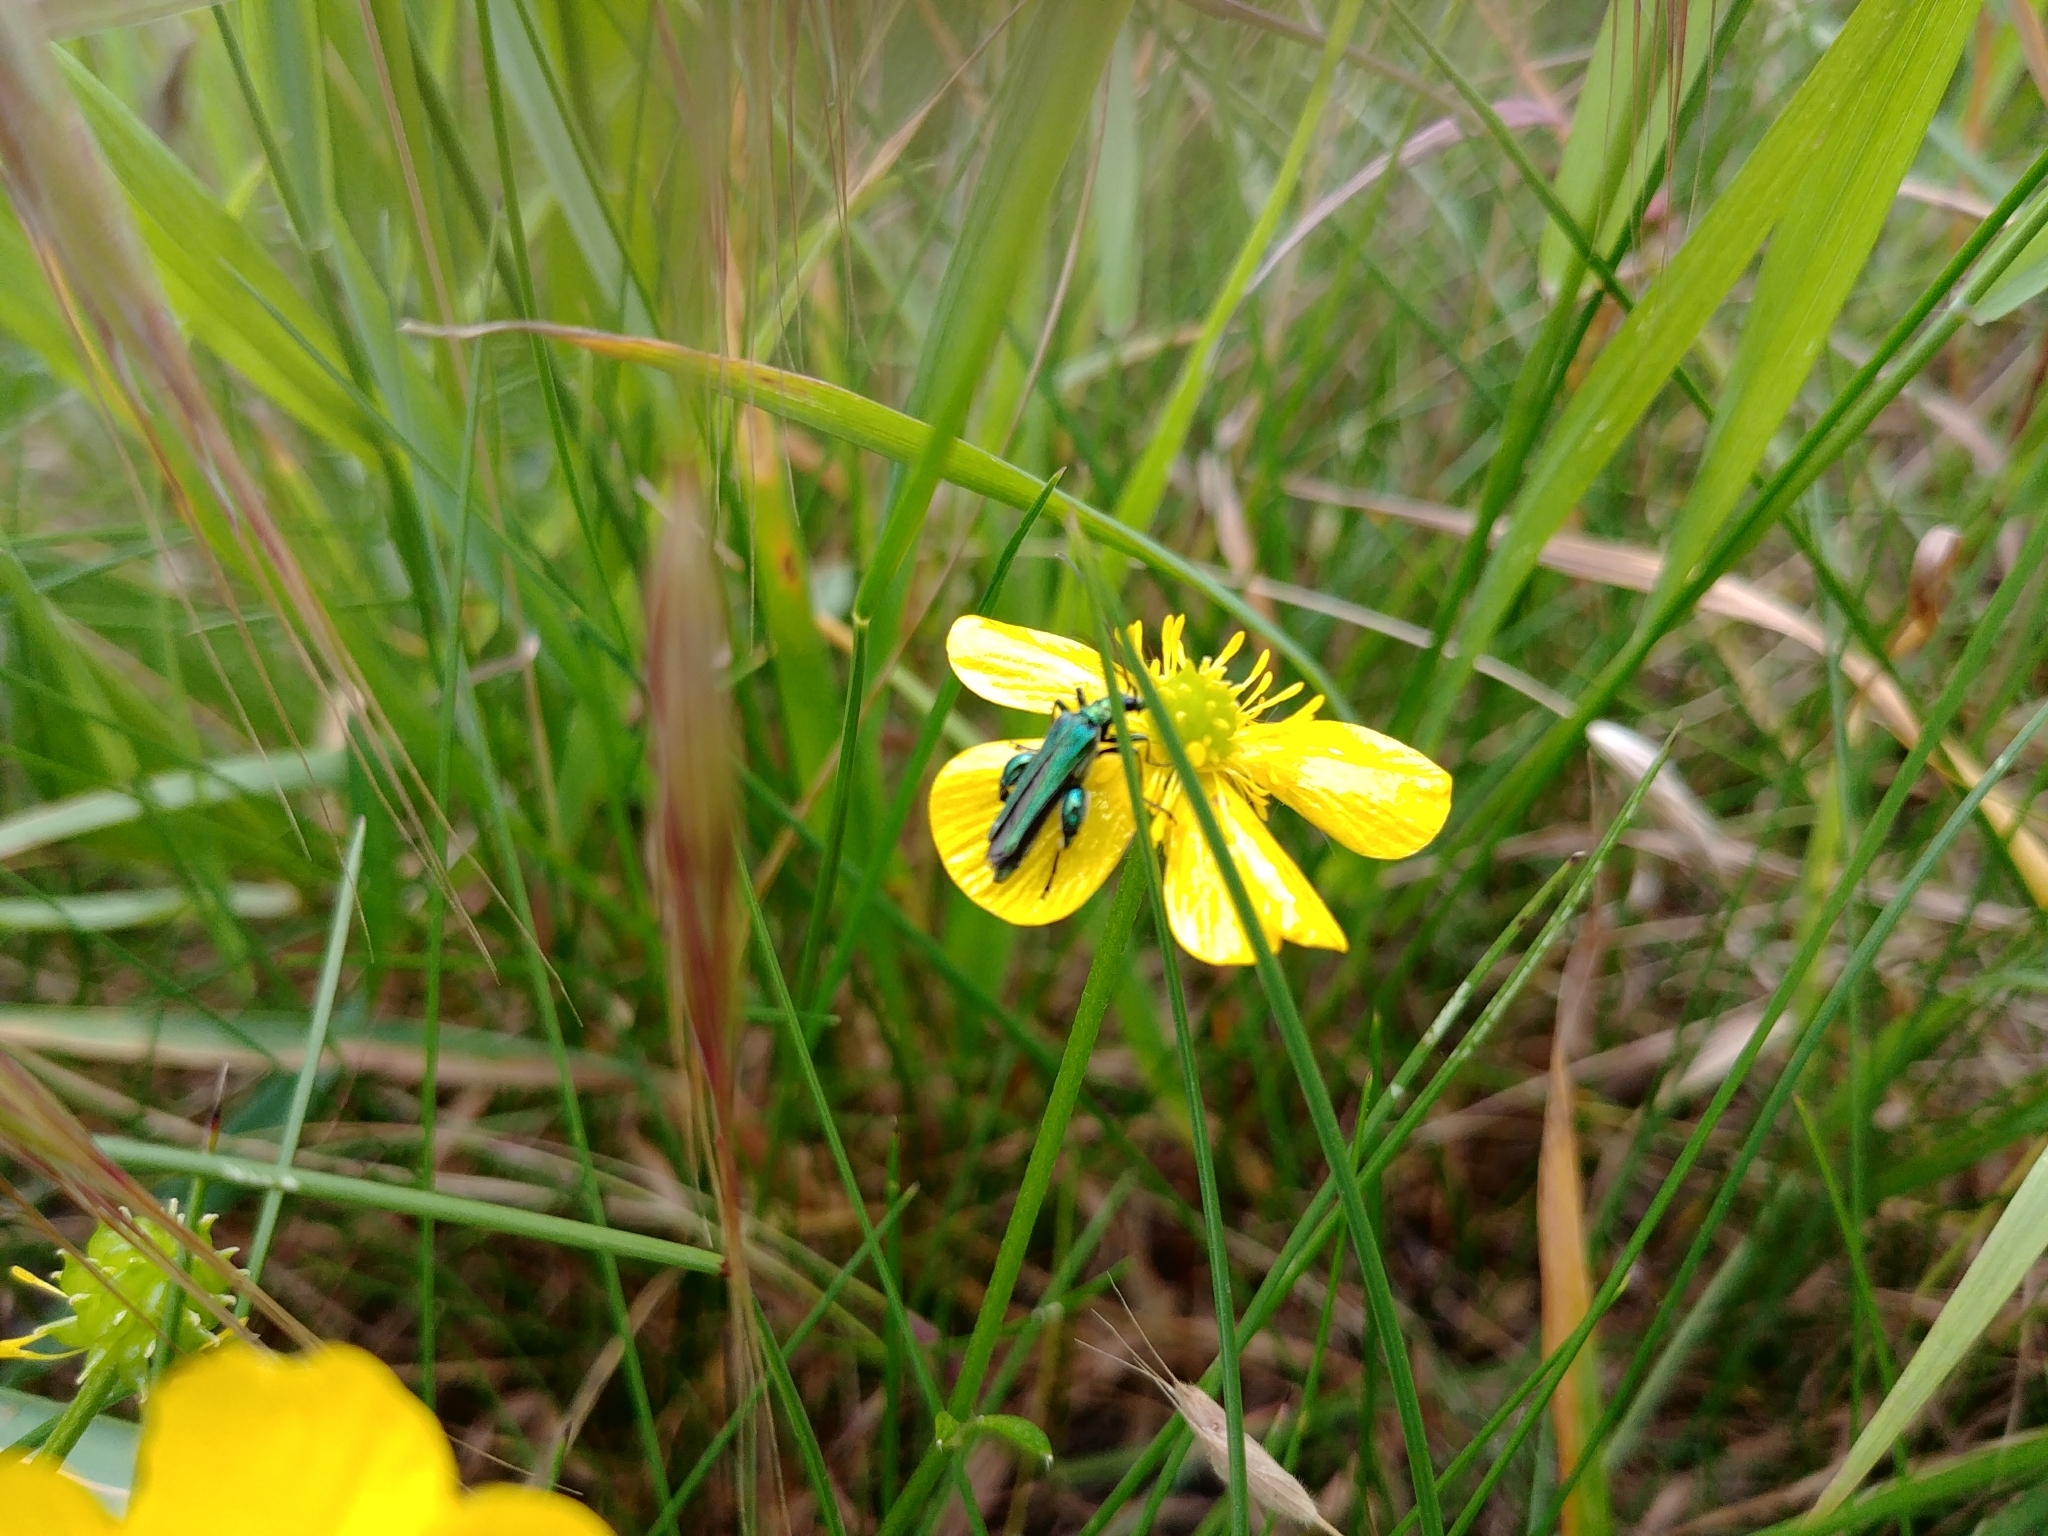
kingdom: Animalia
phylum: Arthropoda
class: Insecta
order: Coleoptera
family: Oedemeridae
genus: Oedemera
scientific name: Oedemera nobilis
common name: Swollen-thighed beetle
